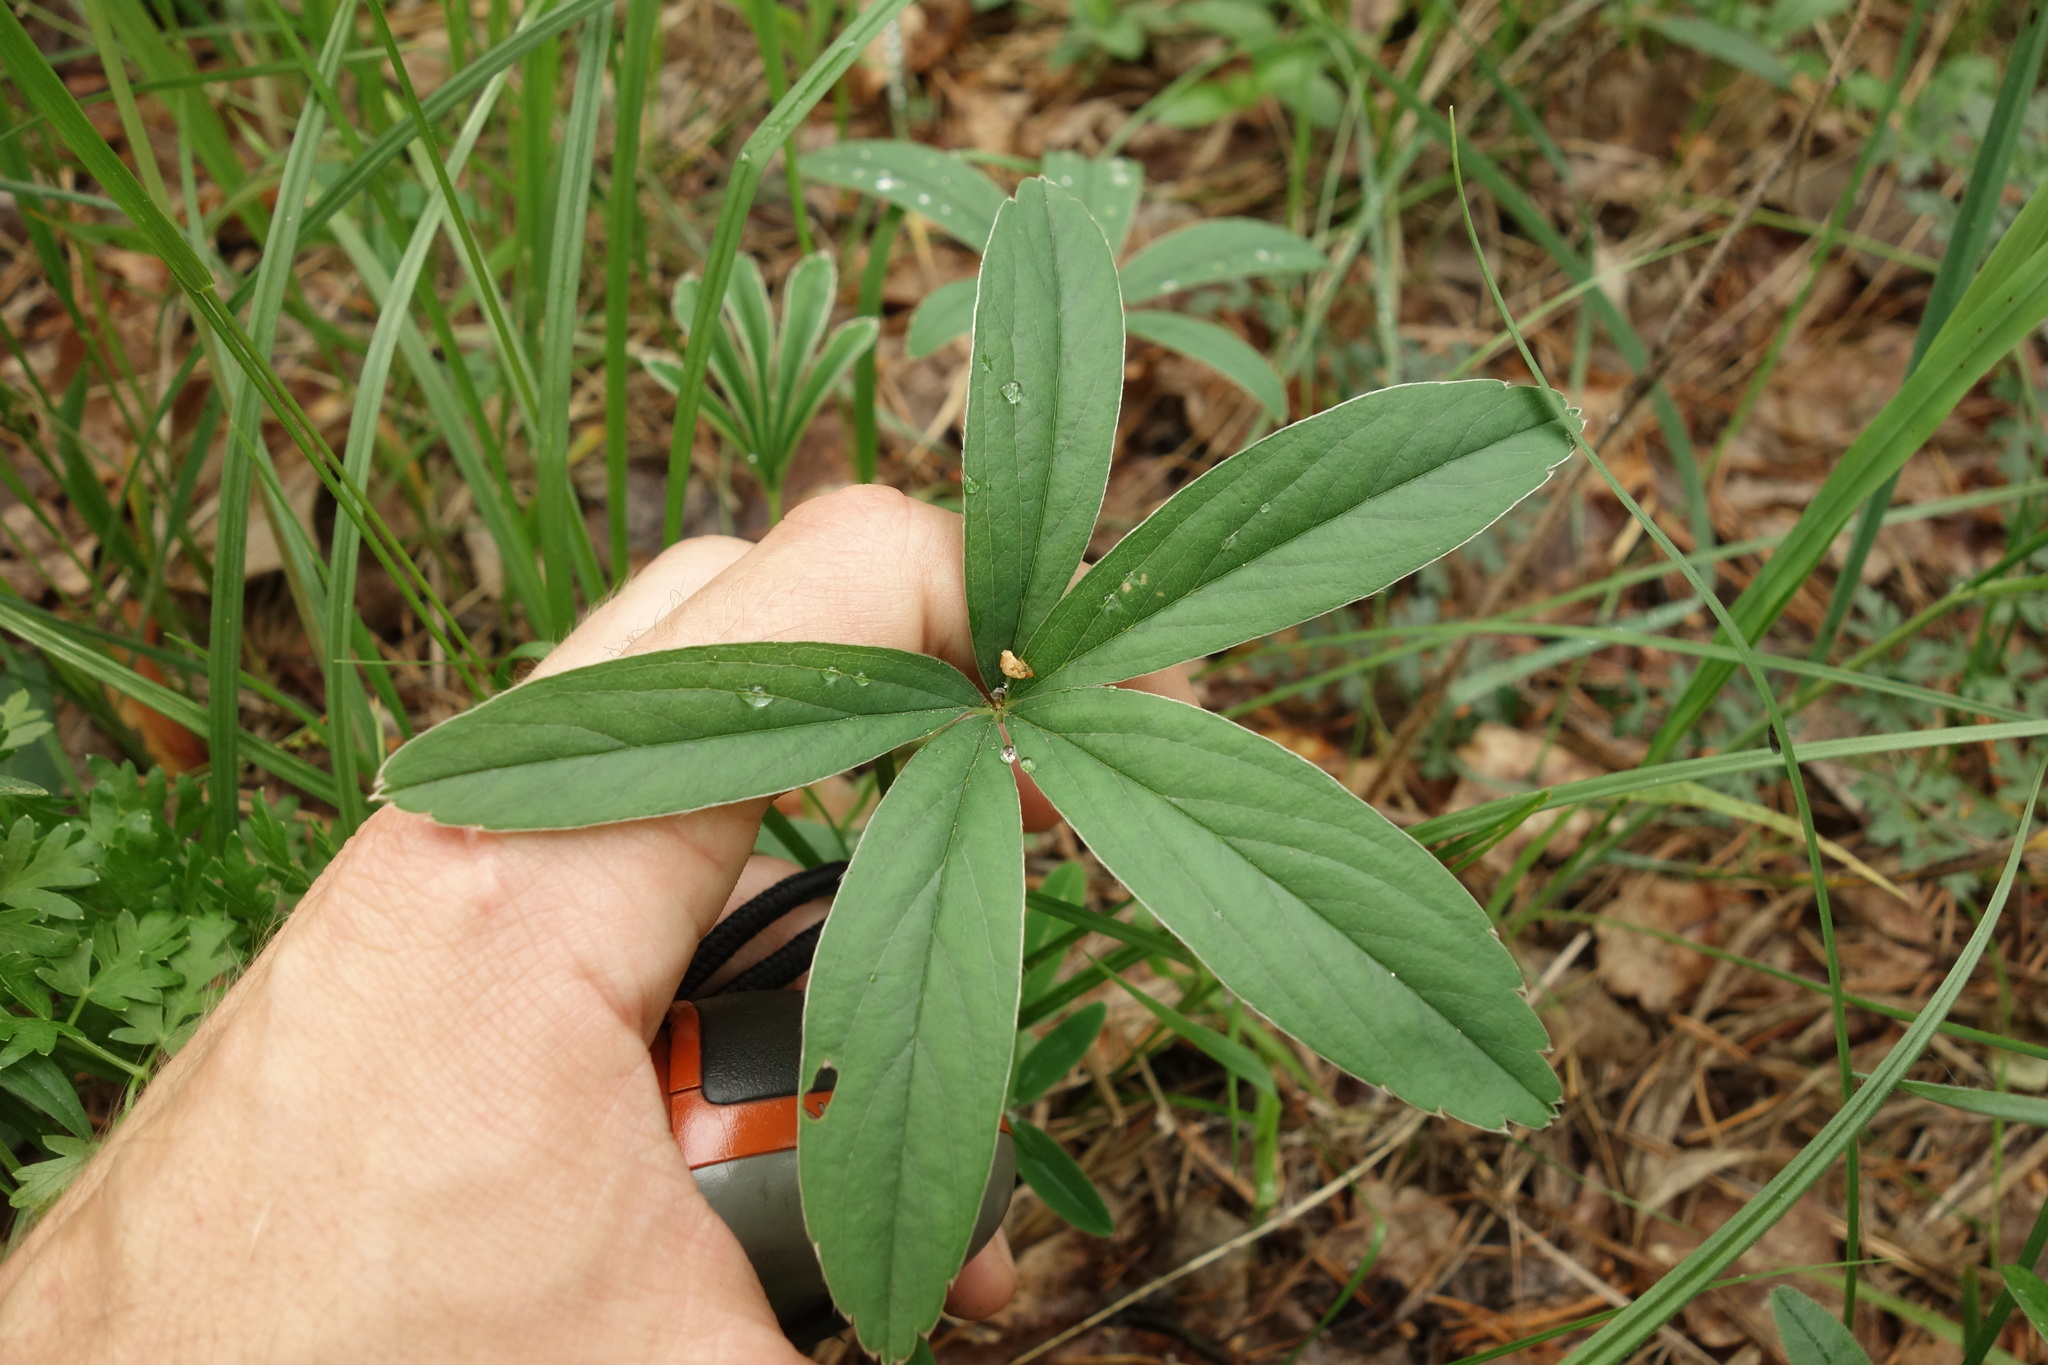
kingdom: Plantae
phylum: Tracheophyta
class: Magnoliopsida
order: Rosales
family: Rosaceae
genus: Potentilla
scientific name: Potentilla alba
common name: White cinquefoil
